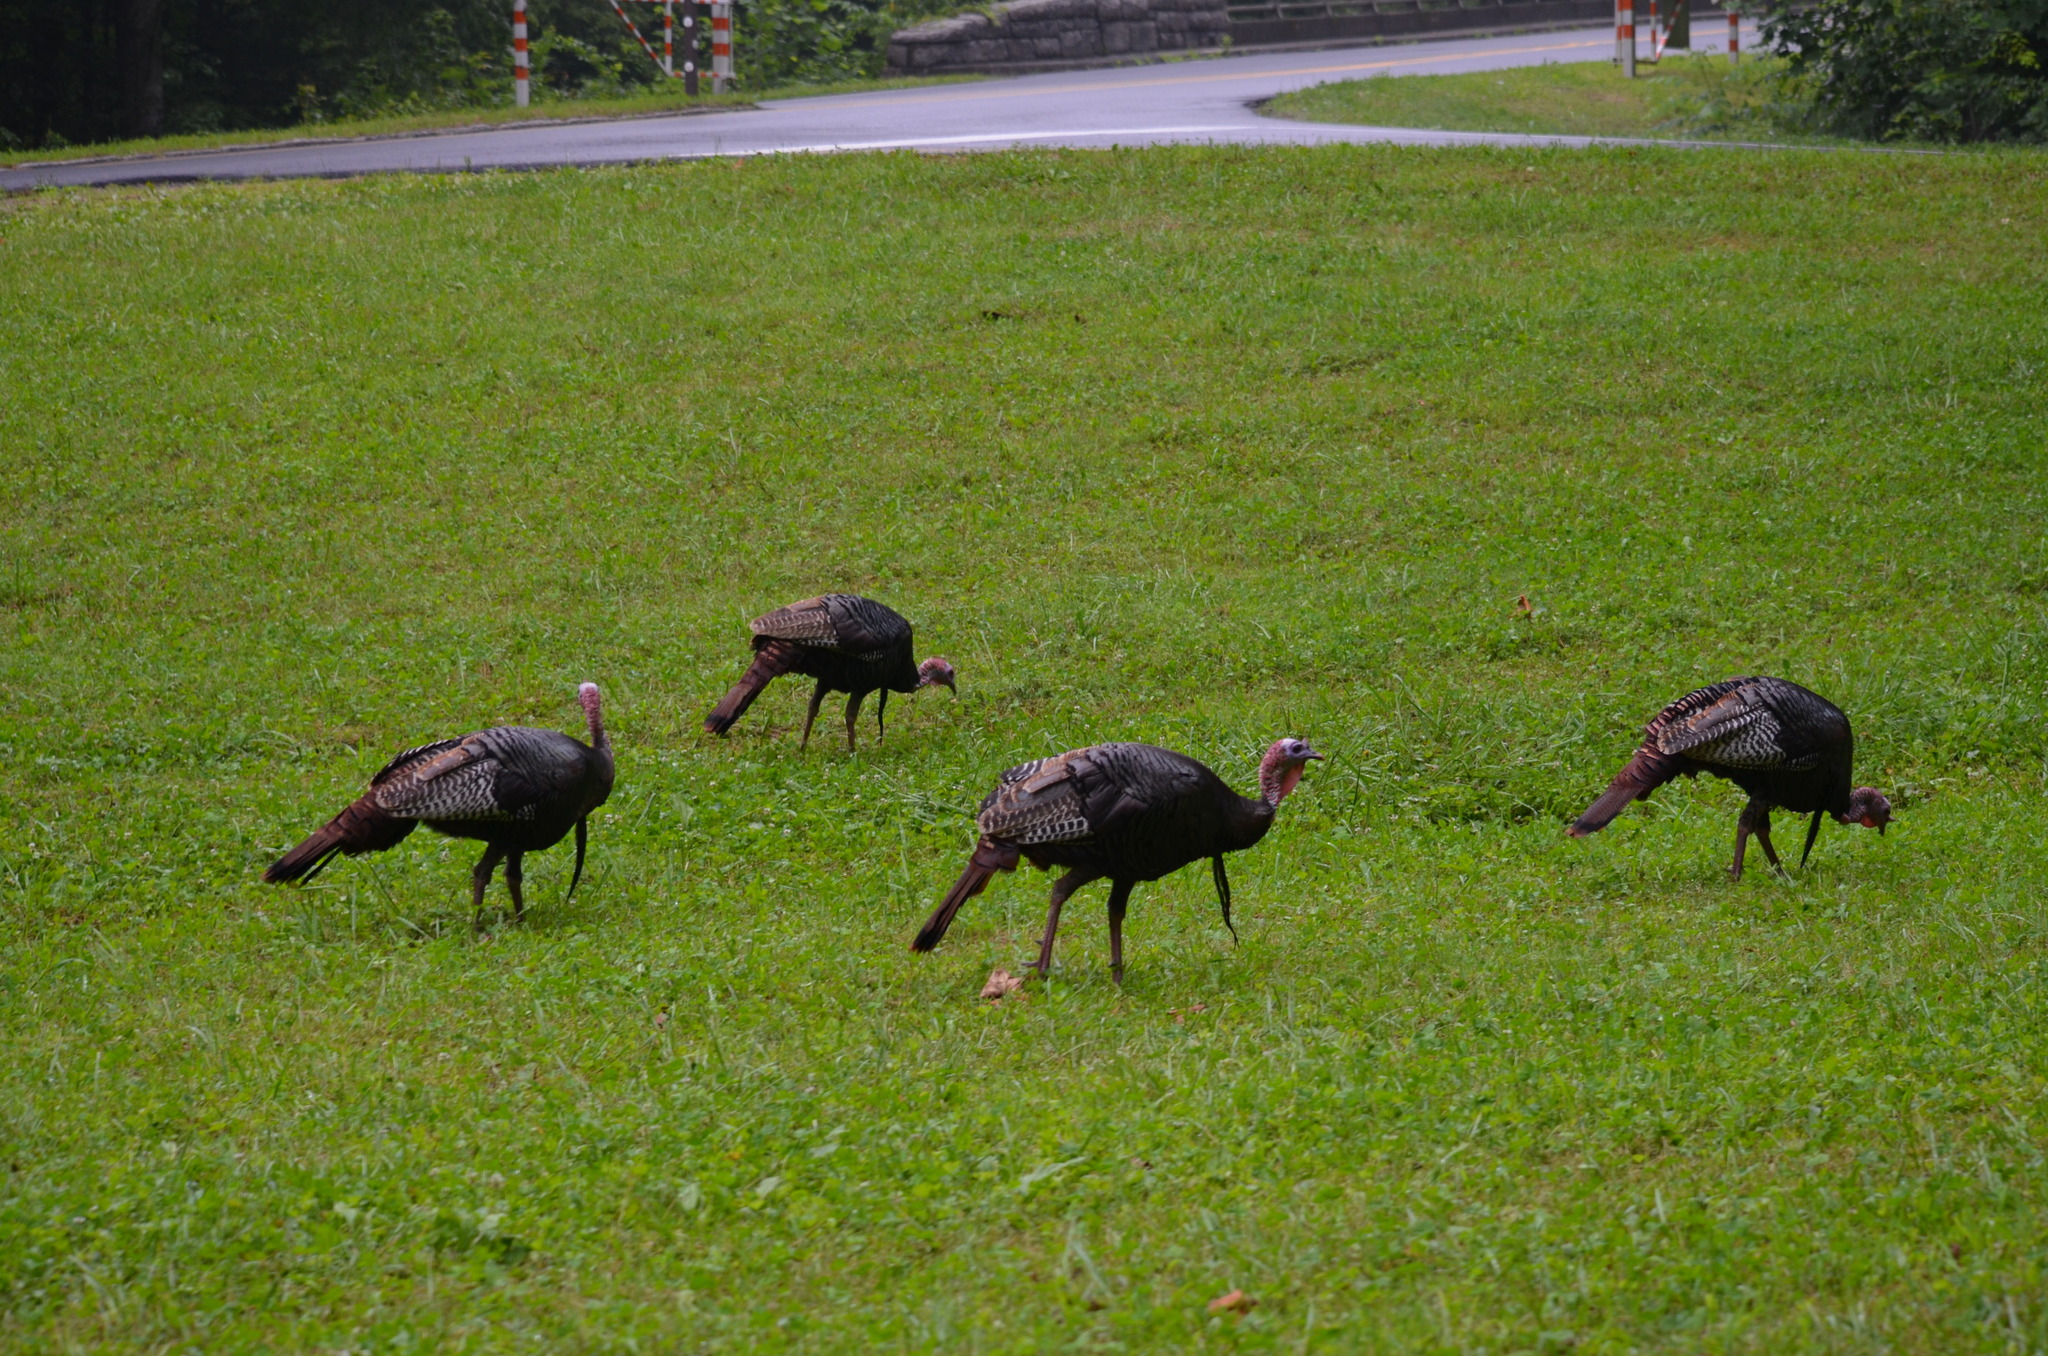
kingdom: Animalia
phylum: Chordata
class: Aves
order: Galliformes
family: Phasianidae
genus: Meleagris
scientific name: Meleagris gallopavo
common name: Wild turkey
